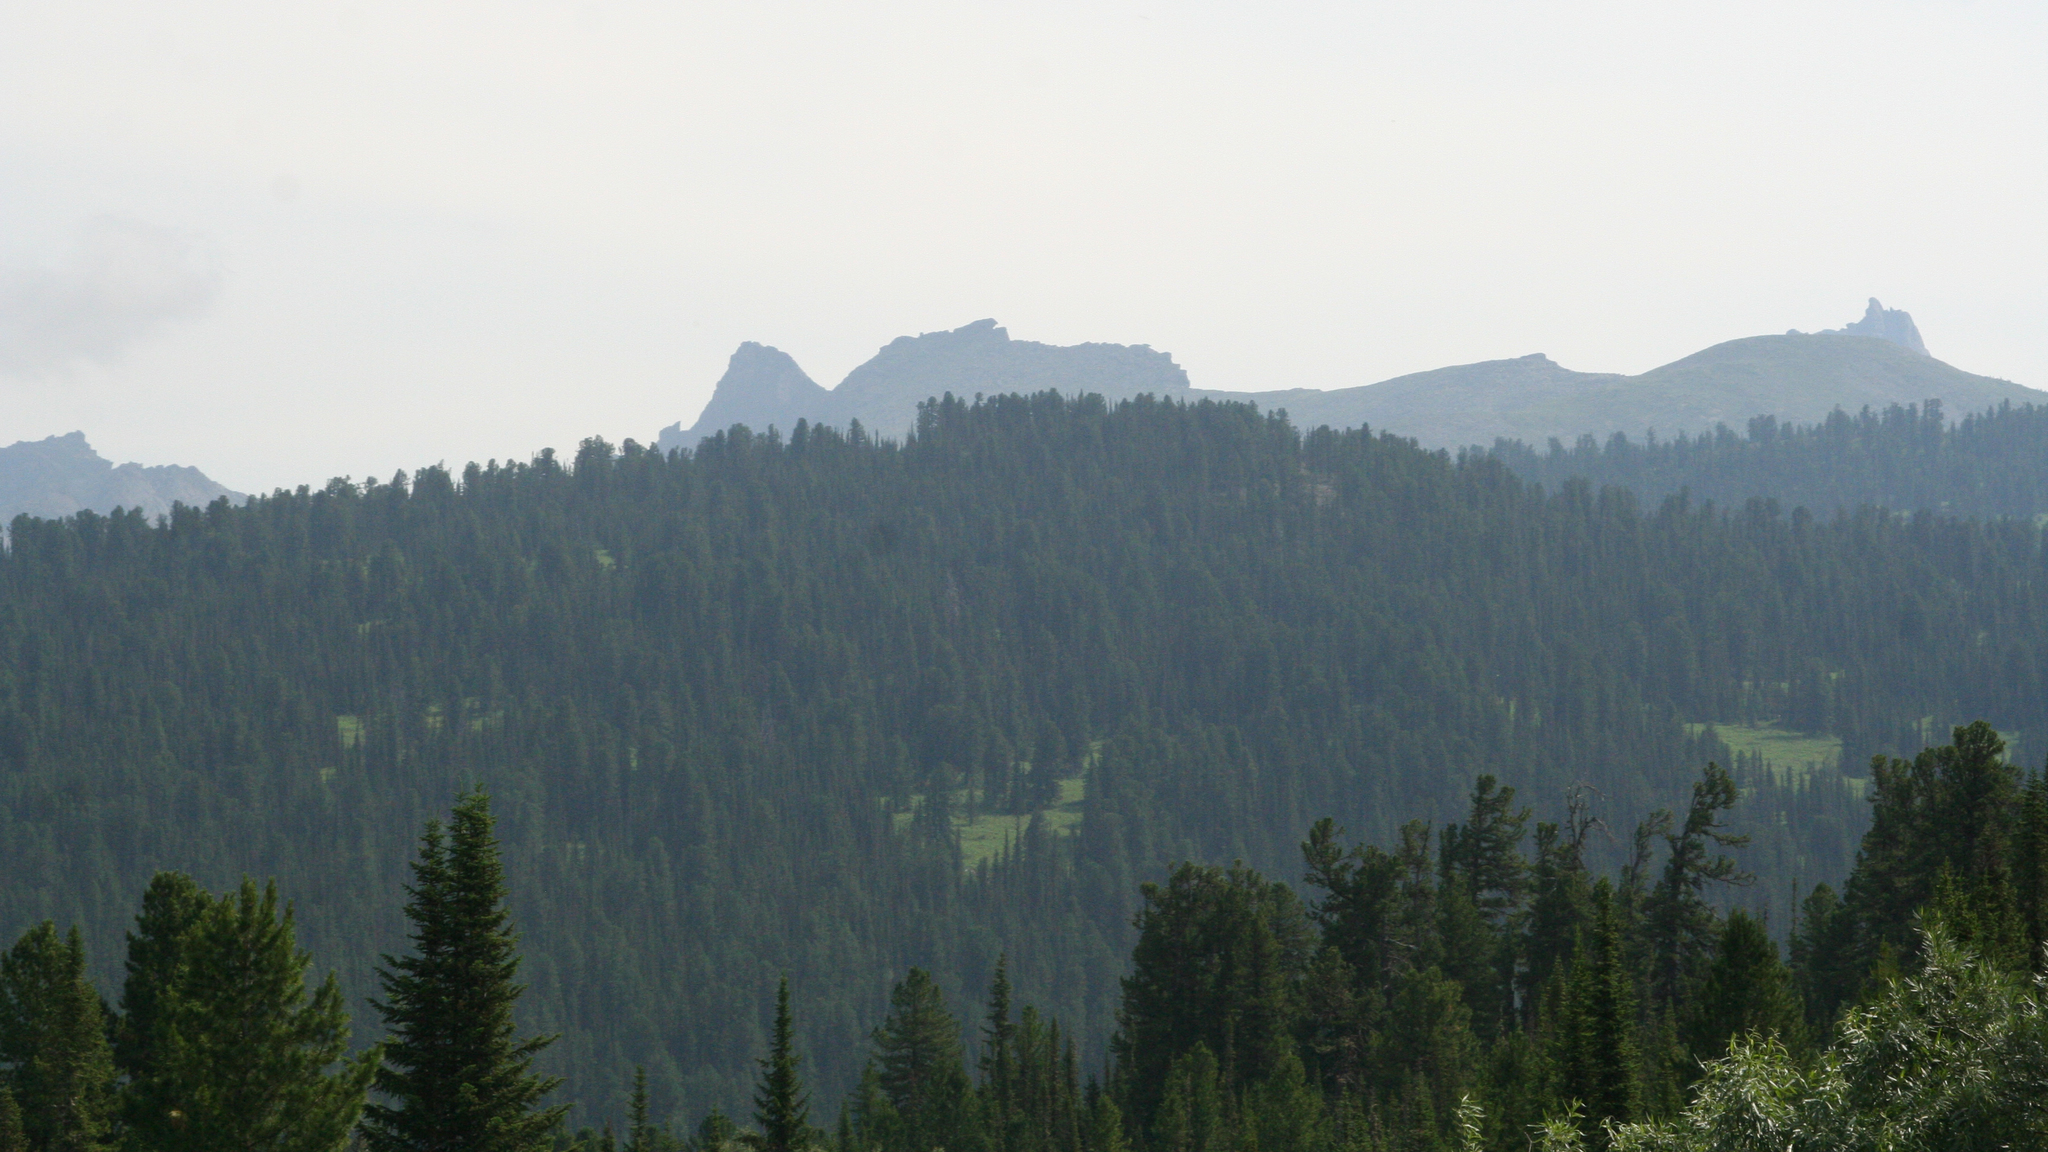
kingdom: Plantae
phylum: Tracheophyta
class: Pinopsida
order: Pinales
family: Pinaceae
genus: Pinus
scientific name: Pinus sibirica
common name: Siberian pine
